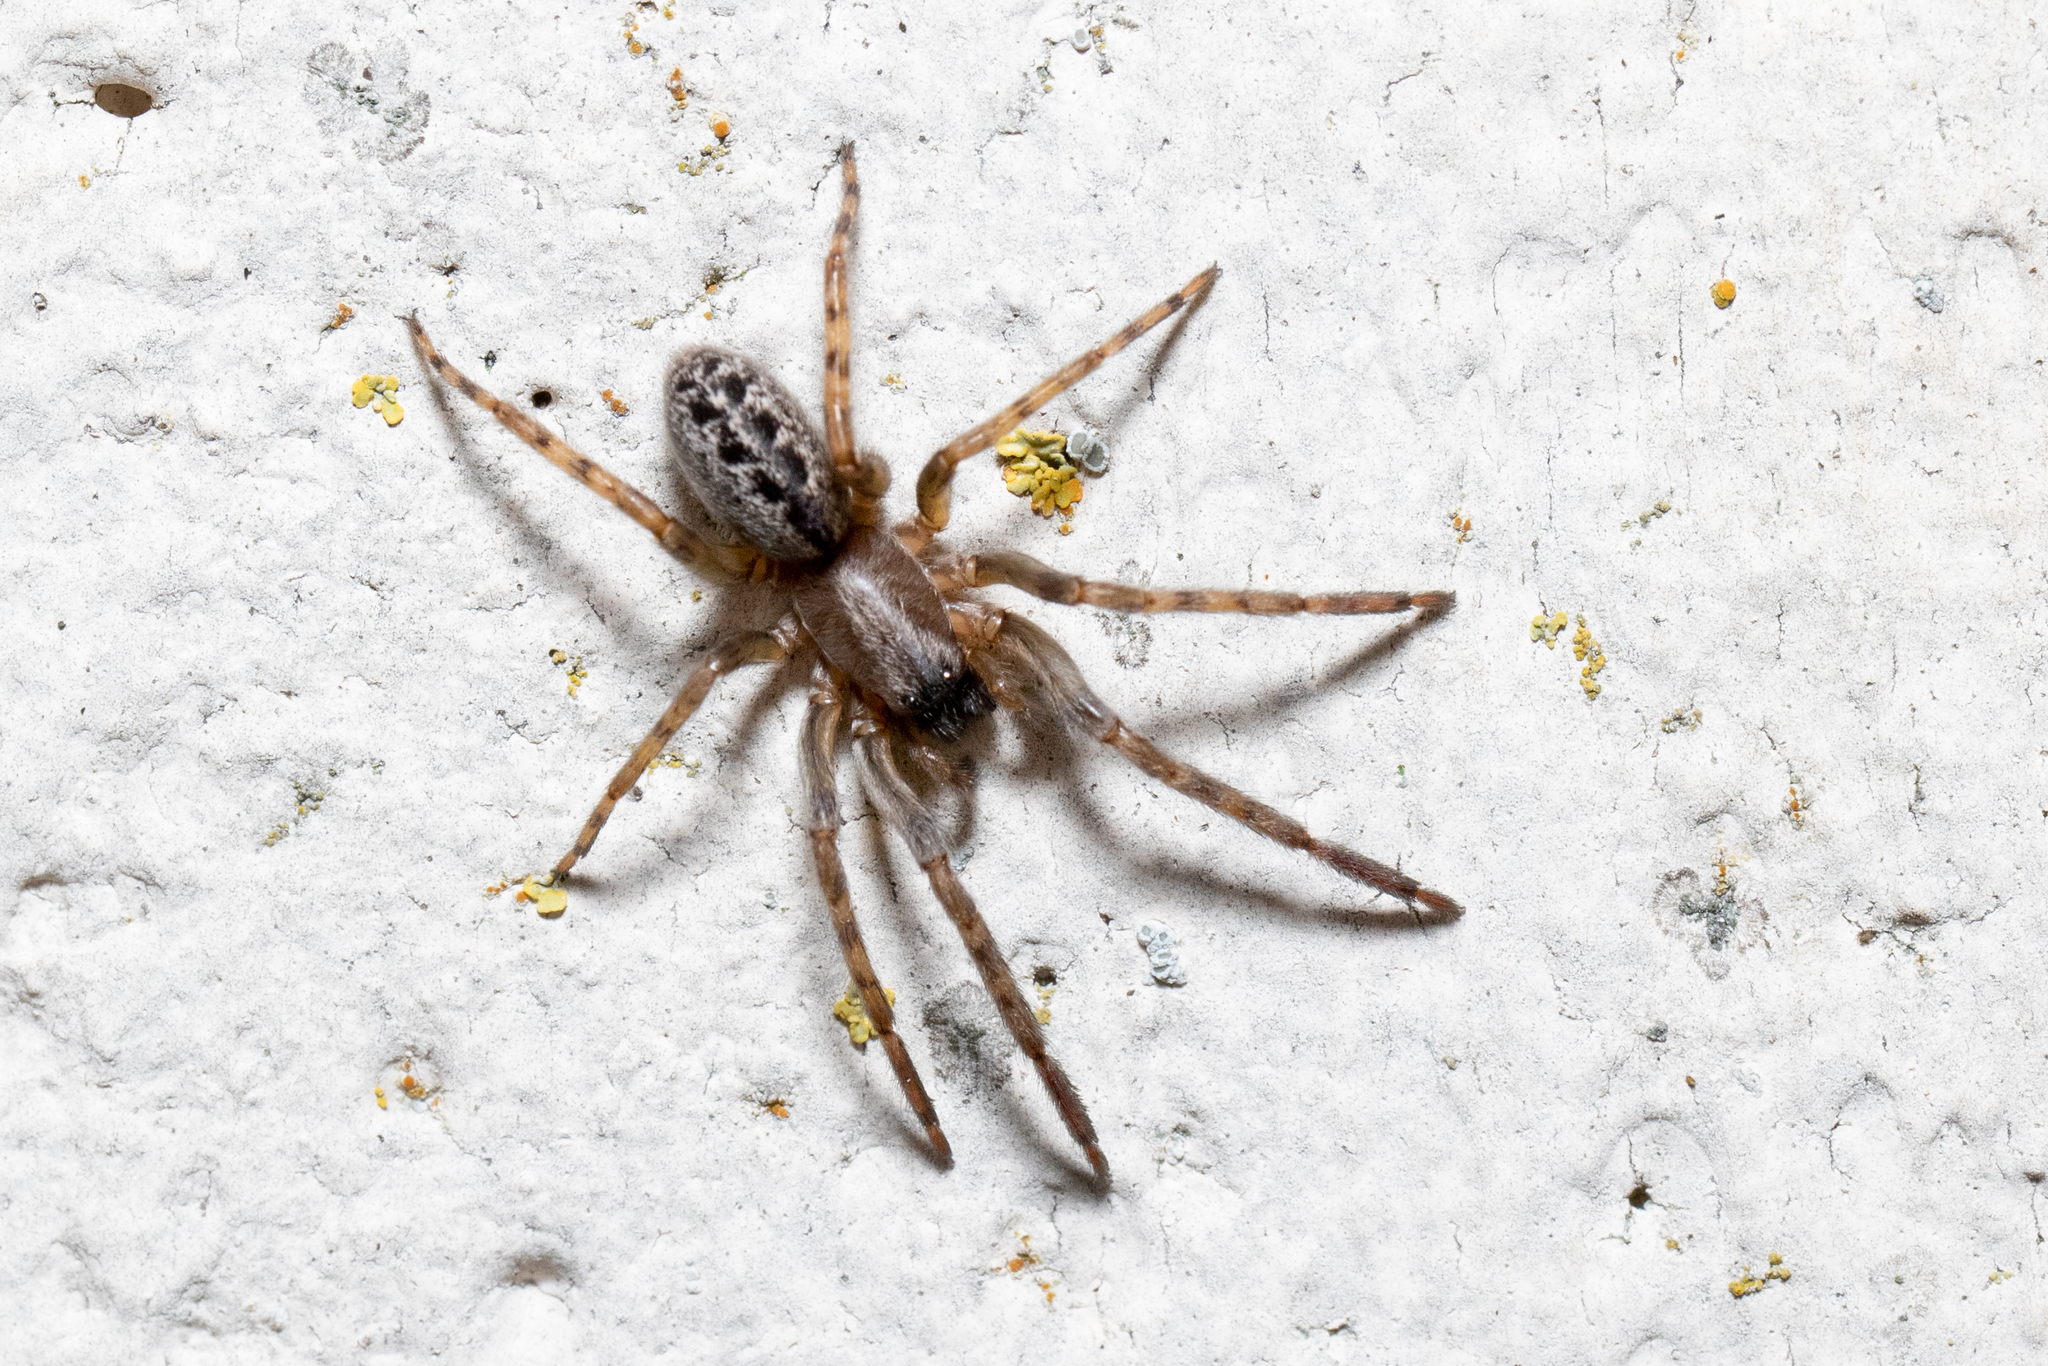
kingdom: Animalia
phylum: Arthropoda
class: Arachnida
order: Araneae
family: Segestriidae
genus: Segestria
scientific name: Segestria bavarica
